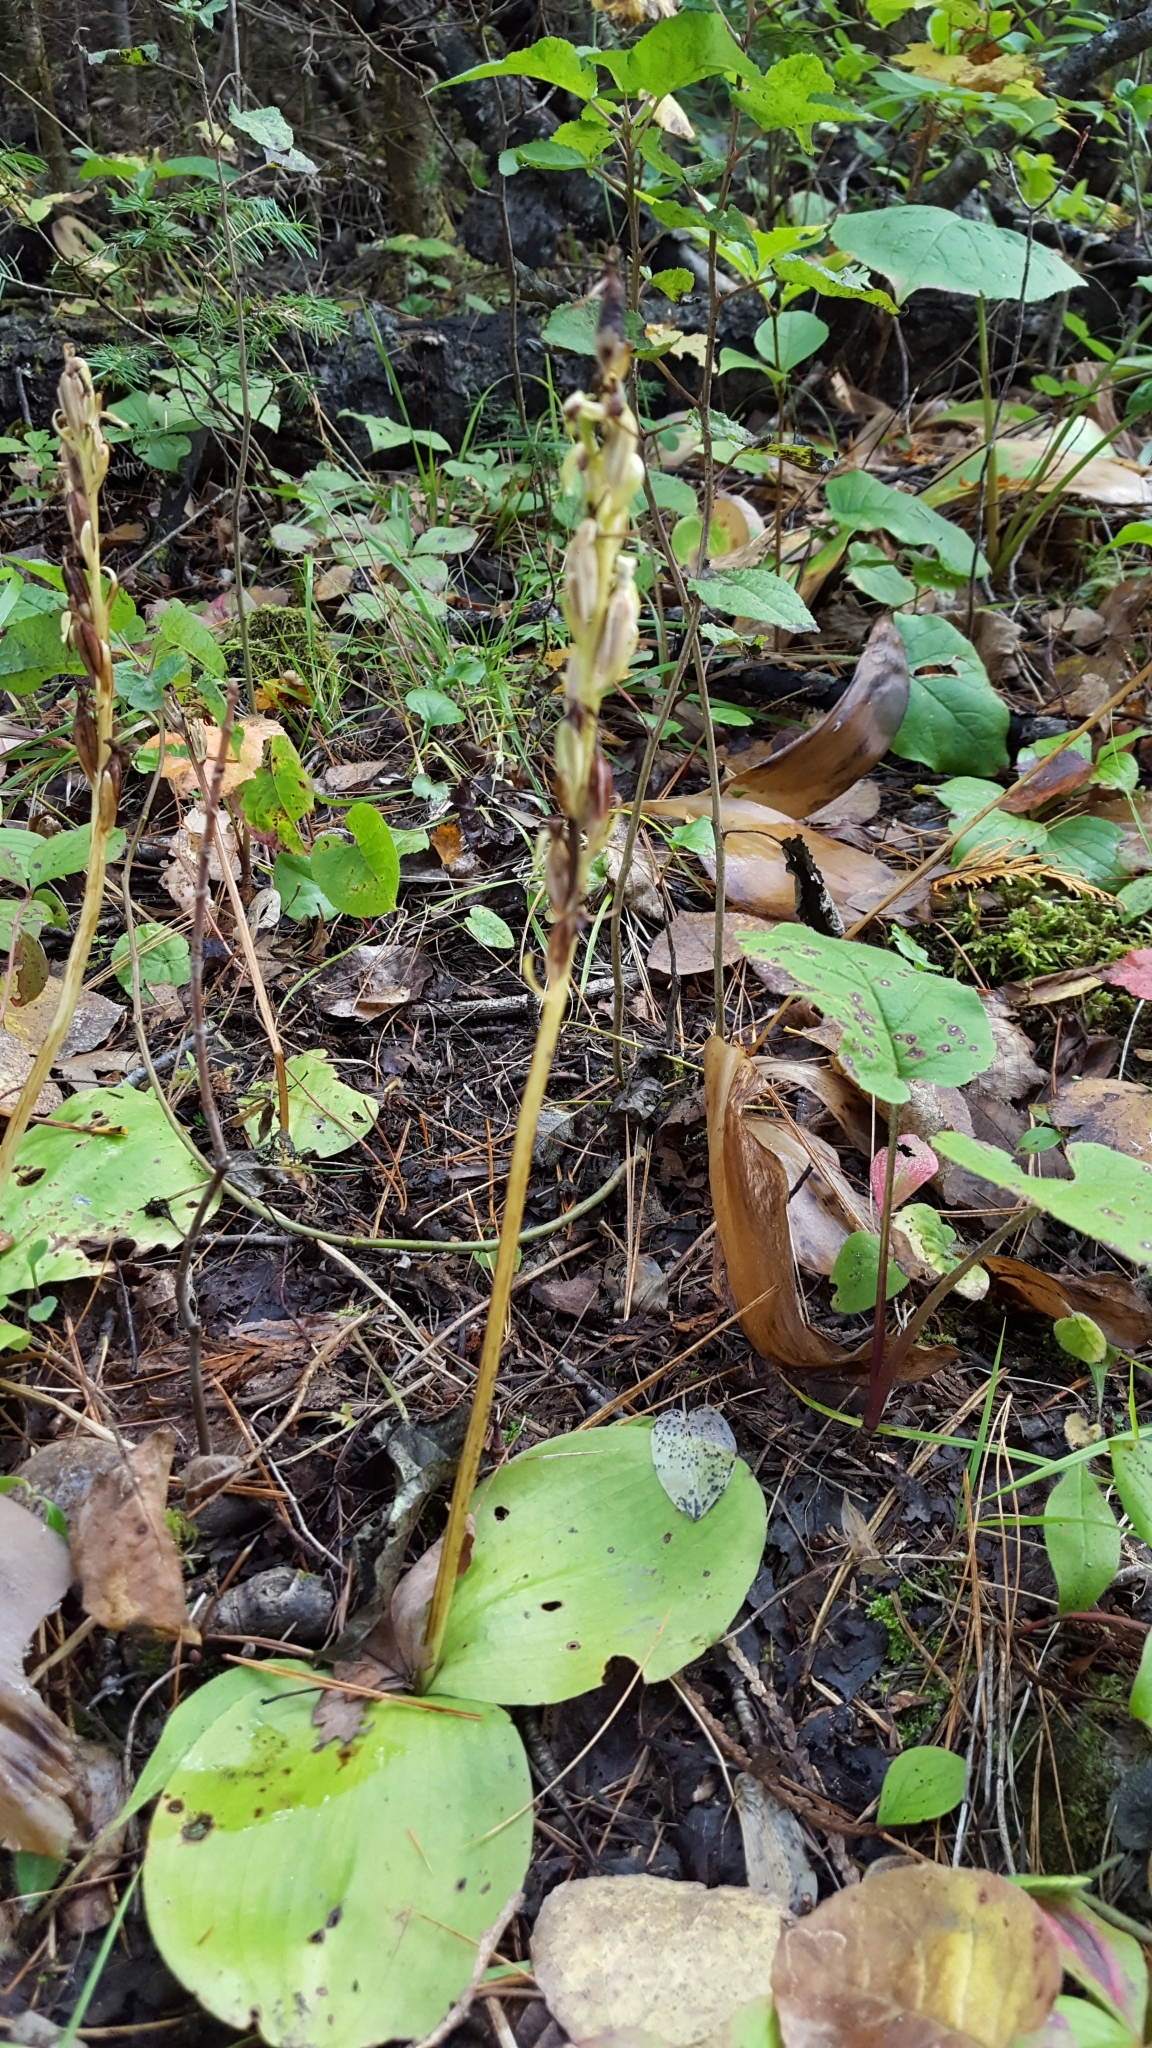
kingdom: Plantae
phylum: Tracheophyta
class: Liliopsida
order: Asparagales
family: Orchidaceae
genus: Platanthera
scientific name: Platanthera hookeri
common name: Hooker's orchid
